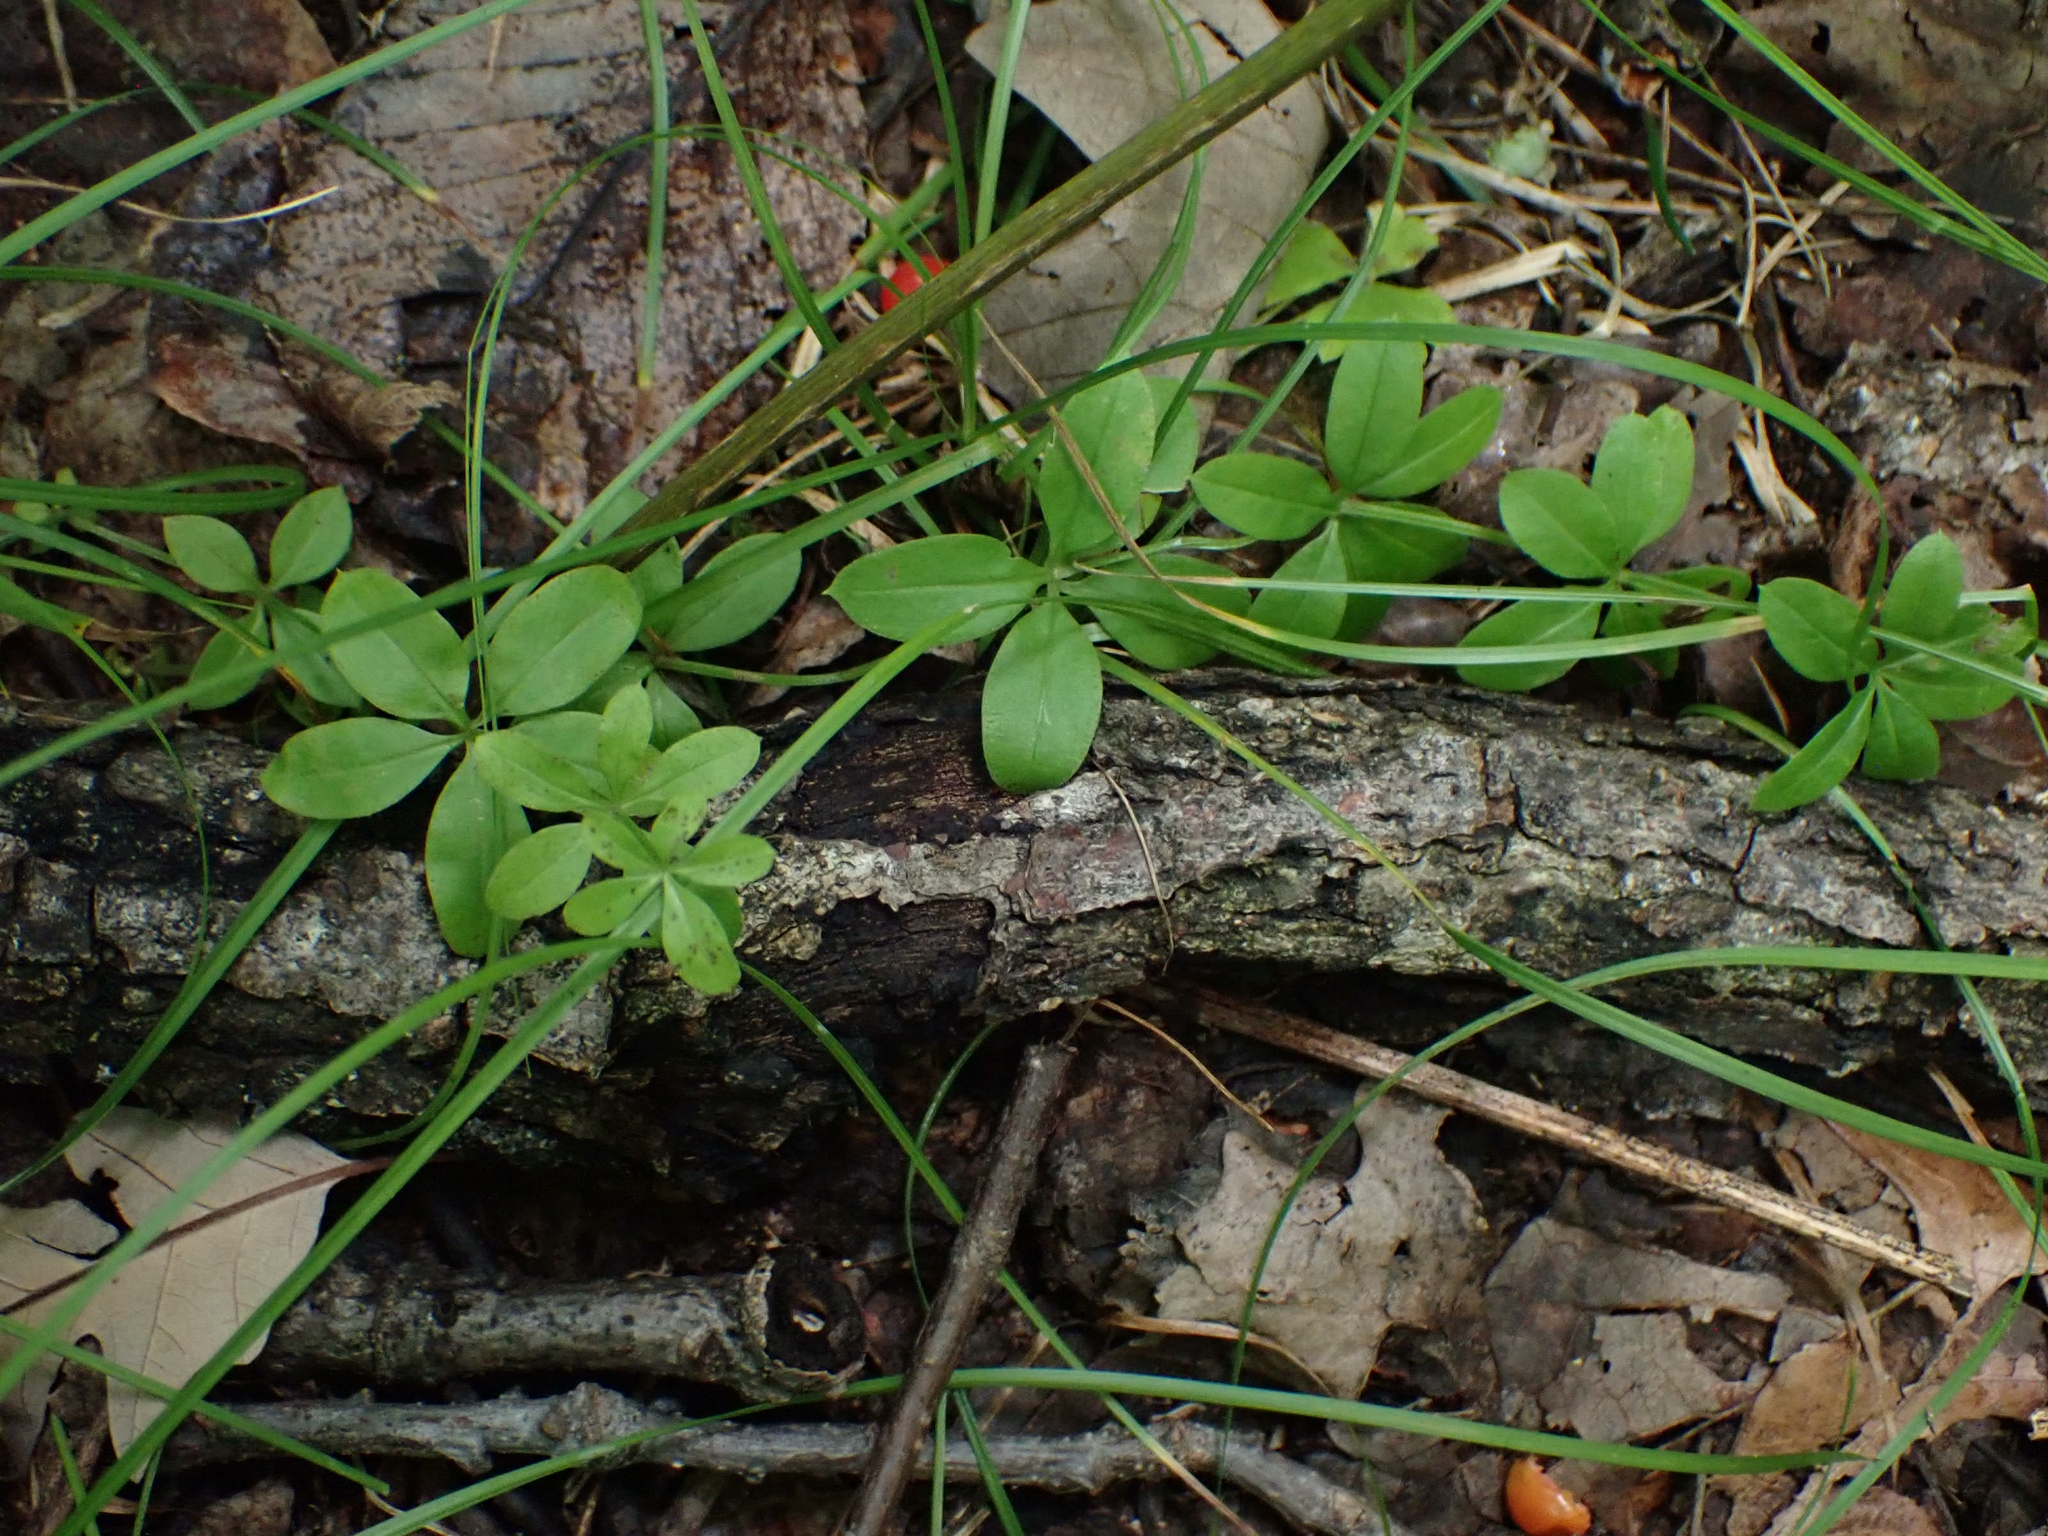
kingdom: Plantae
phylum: Tracheophyta
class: Magnoliopsida
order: Gentianales
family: Rubiaceae
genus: Galium
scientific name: Galium triflorum
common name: Fragrant bedstraw
